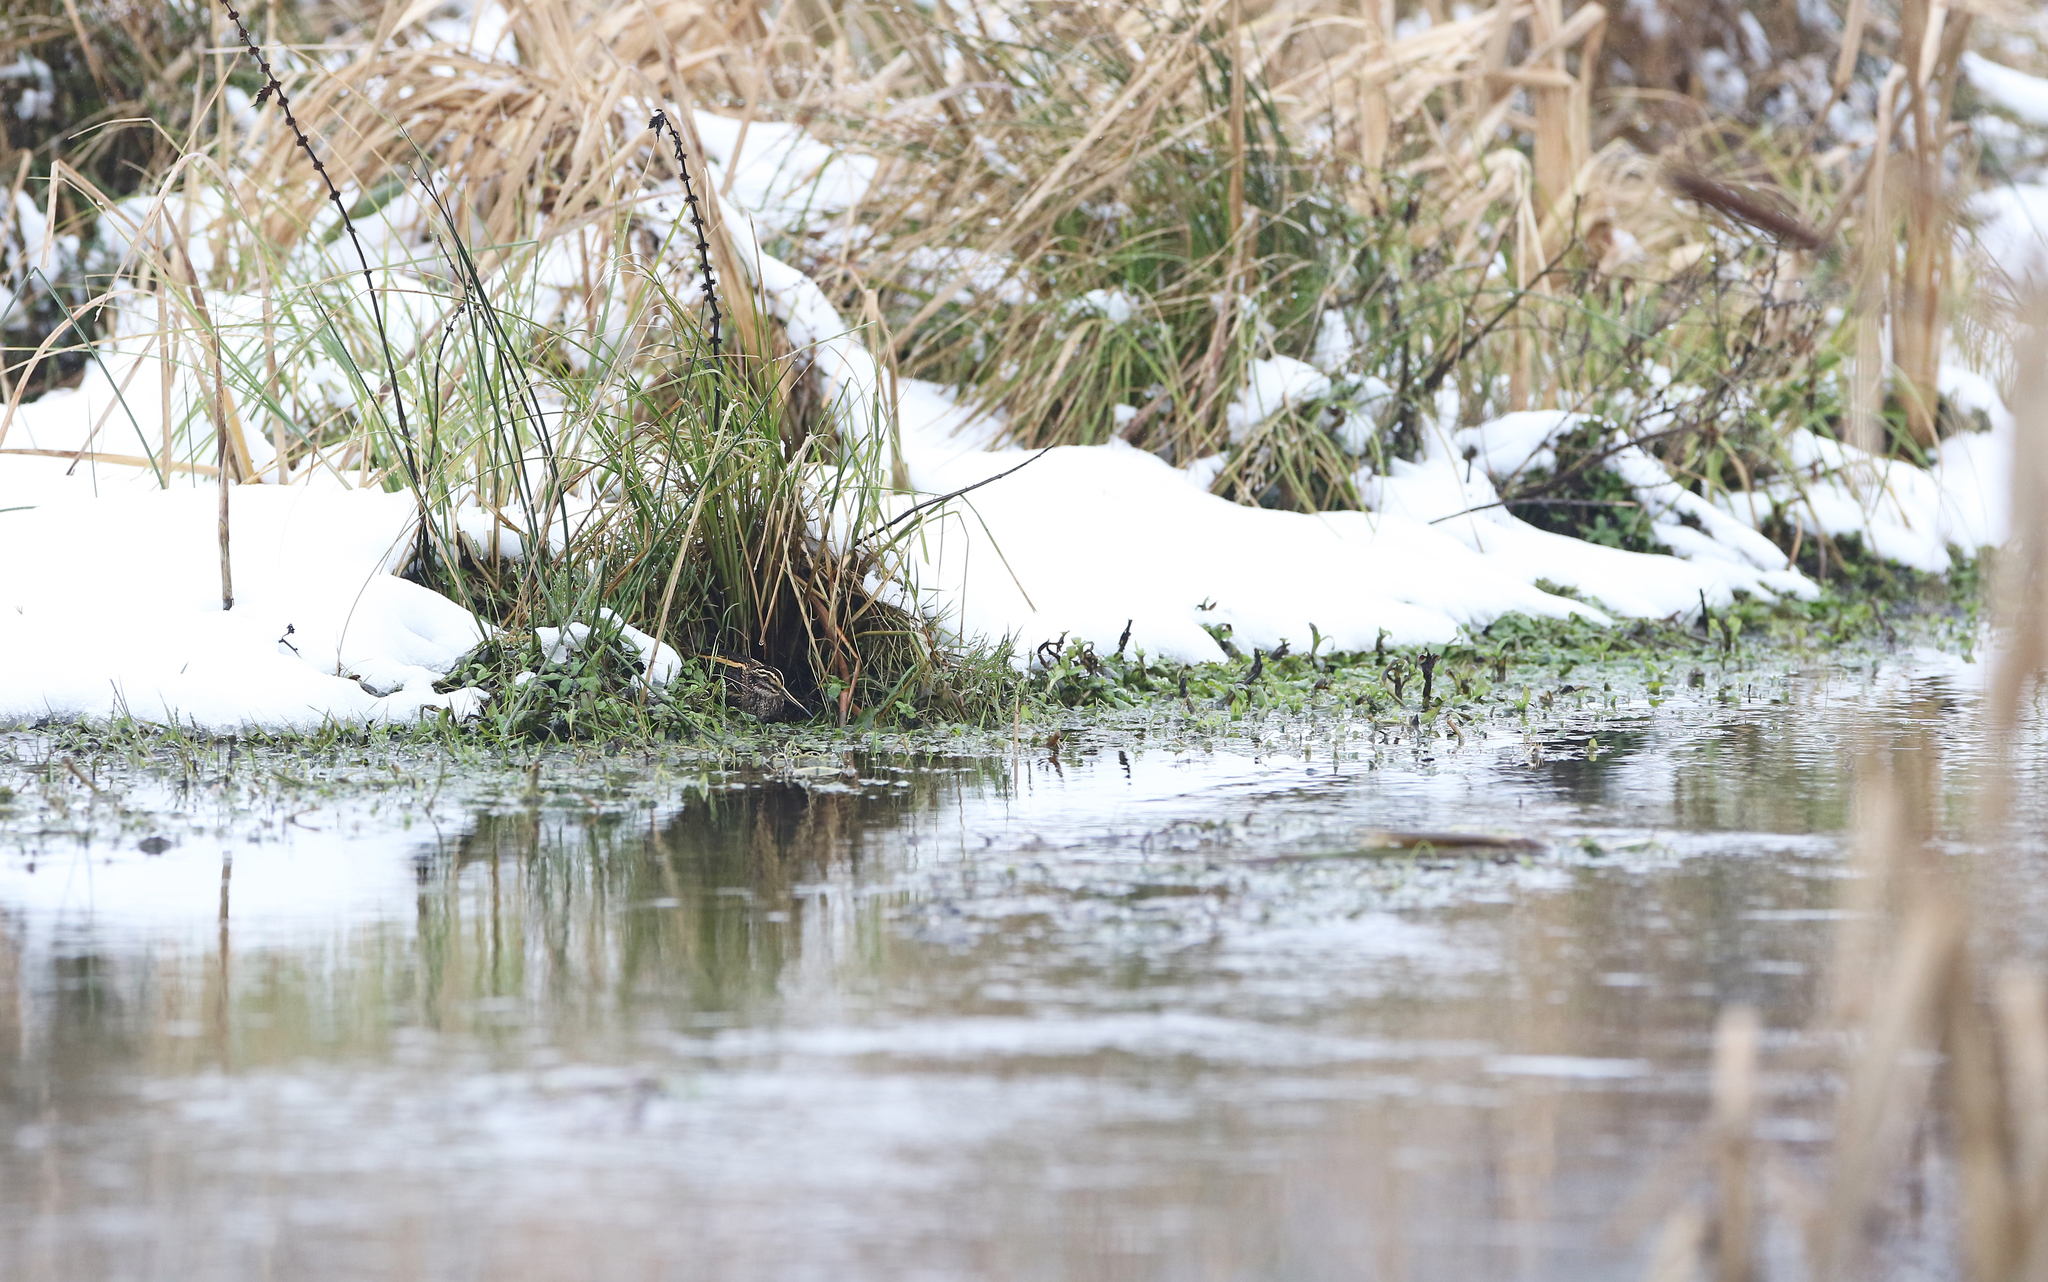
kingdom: Animalia
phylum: Chordata
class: Aves
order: Charadriiformes
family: Scolopacidae
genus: Lymnocryptes
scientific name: Lymnocryptes minimus
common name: Jack snipe
